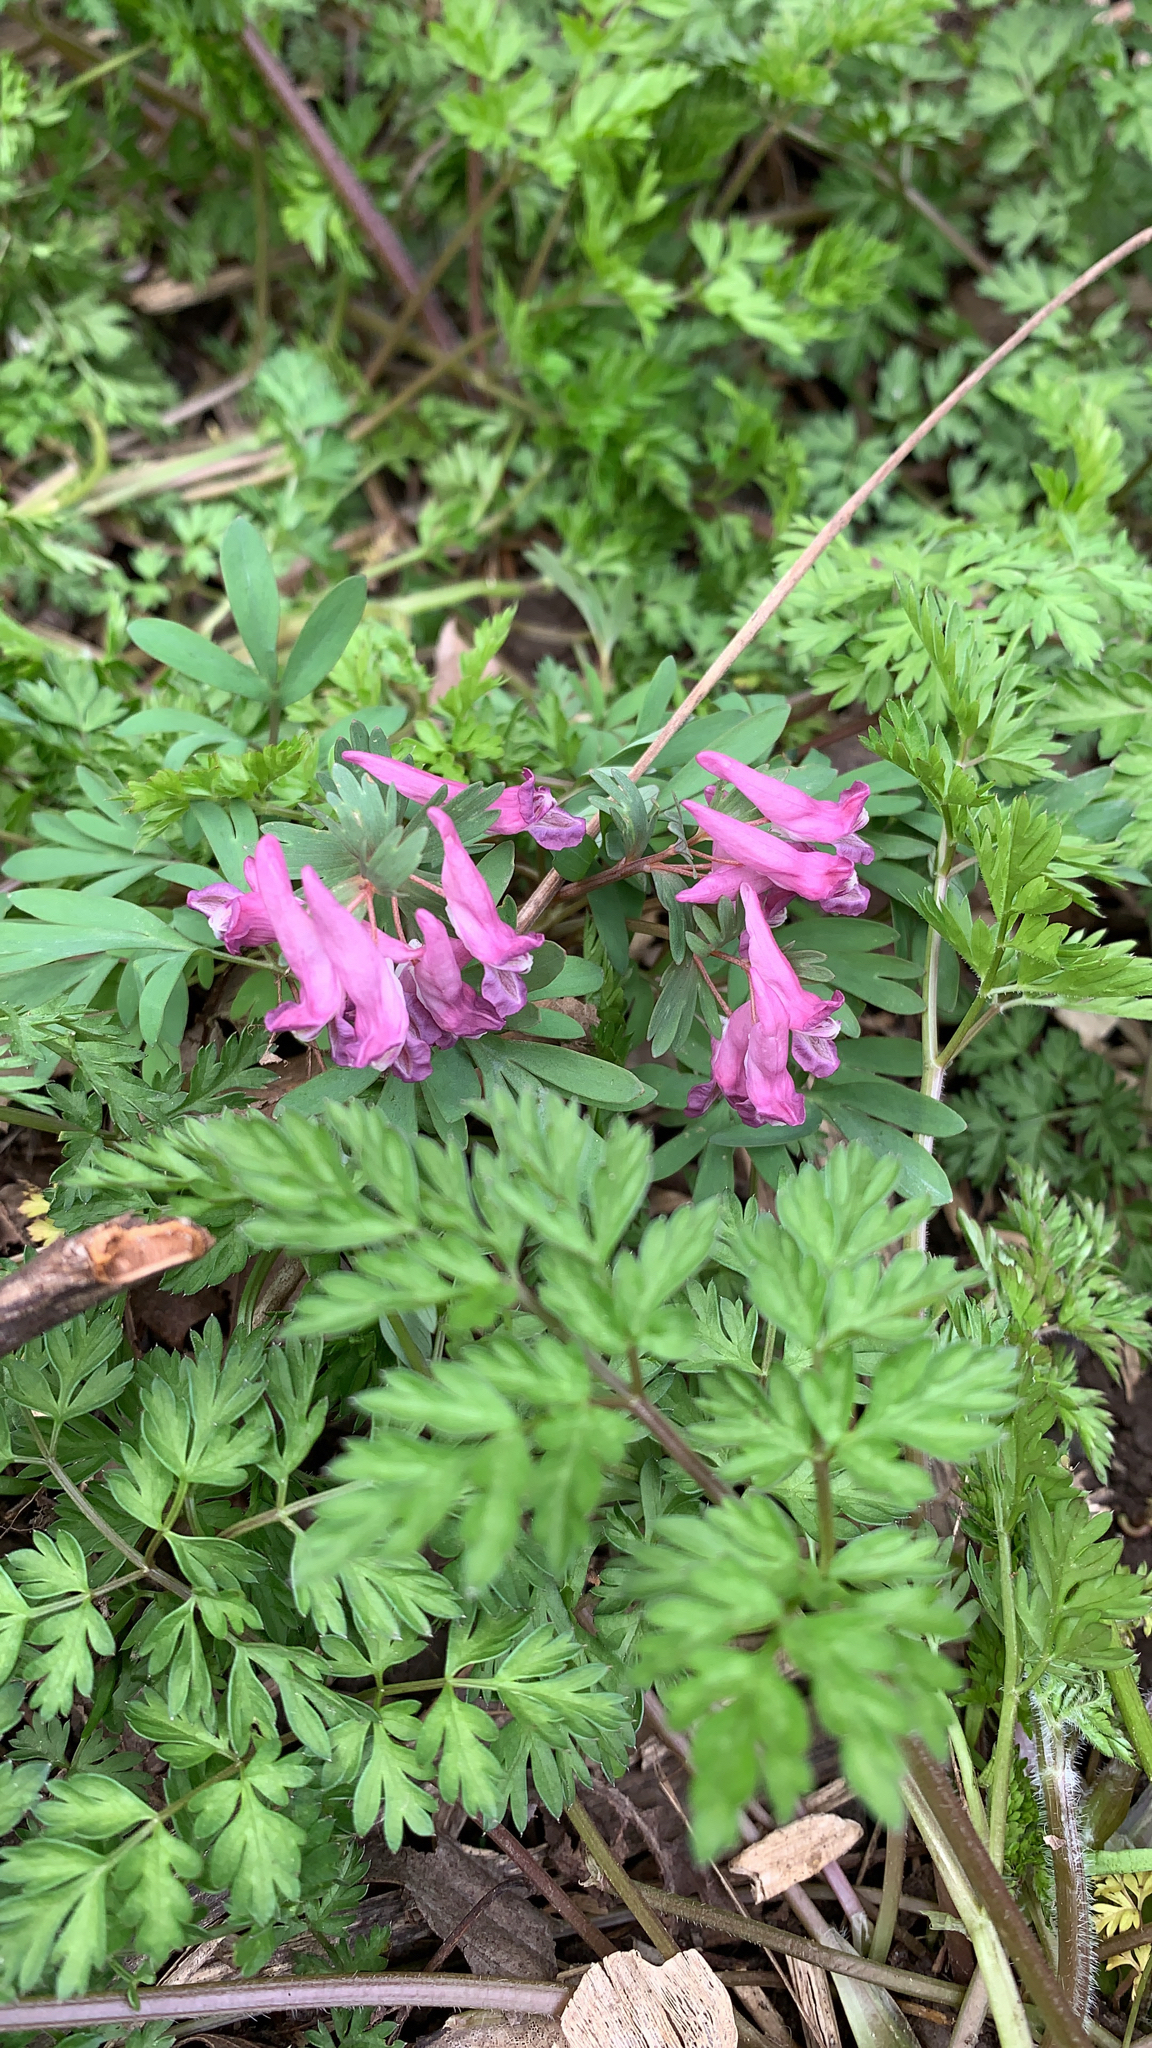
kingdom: Plantae
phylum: Tracheophyta
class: Magnoliopsida
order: Ranunculales
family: Papaveraceae
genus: Corydalis
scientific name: Corydalis solida
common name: Bird-in-a-bush
